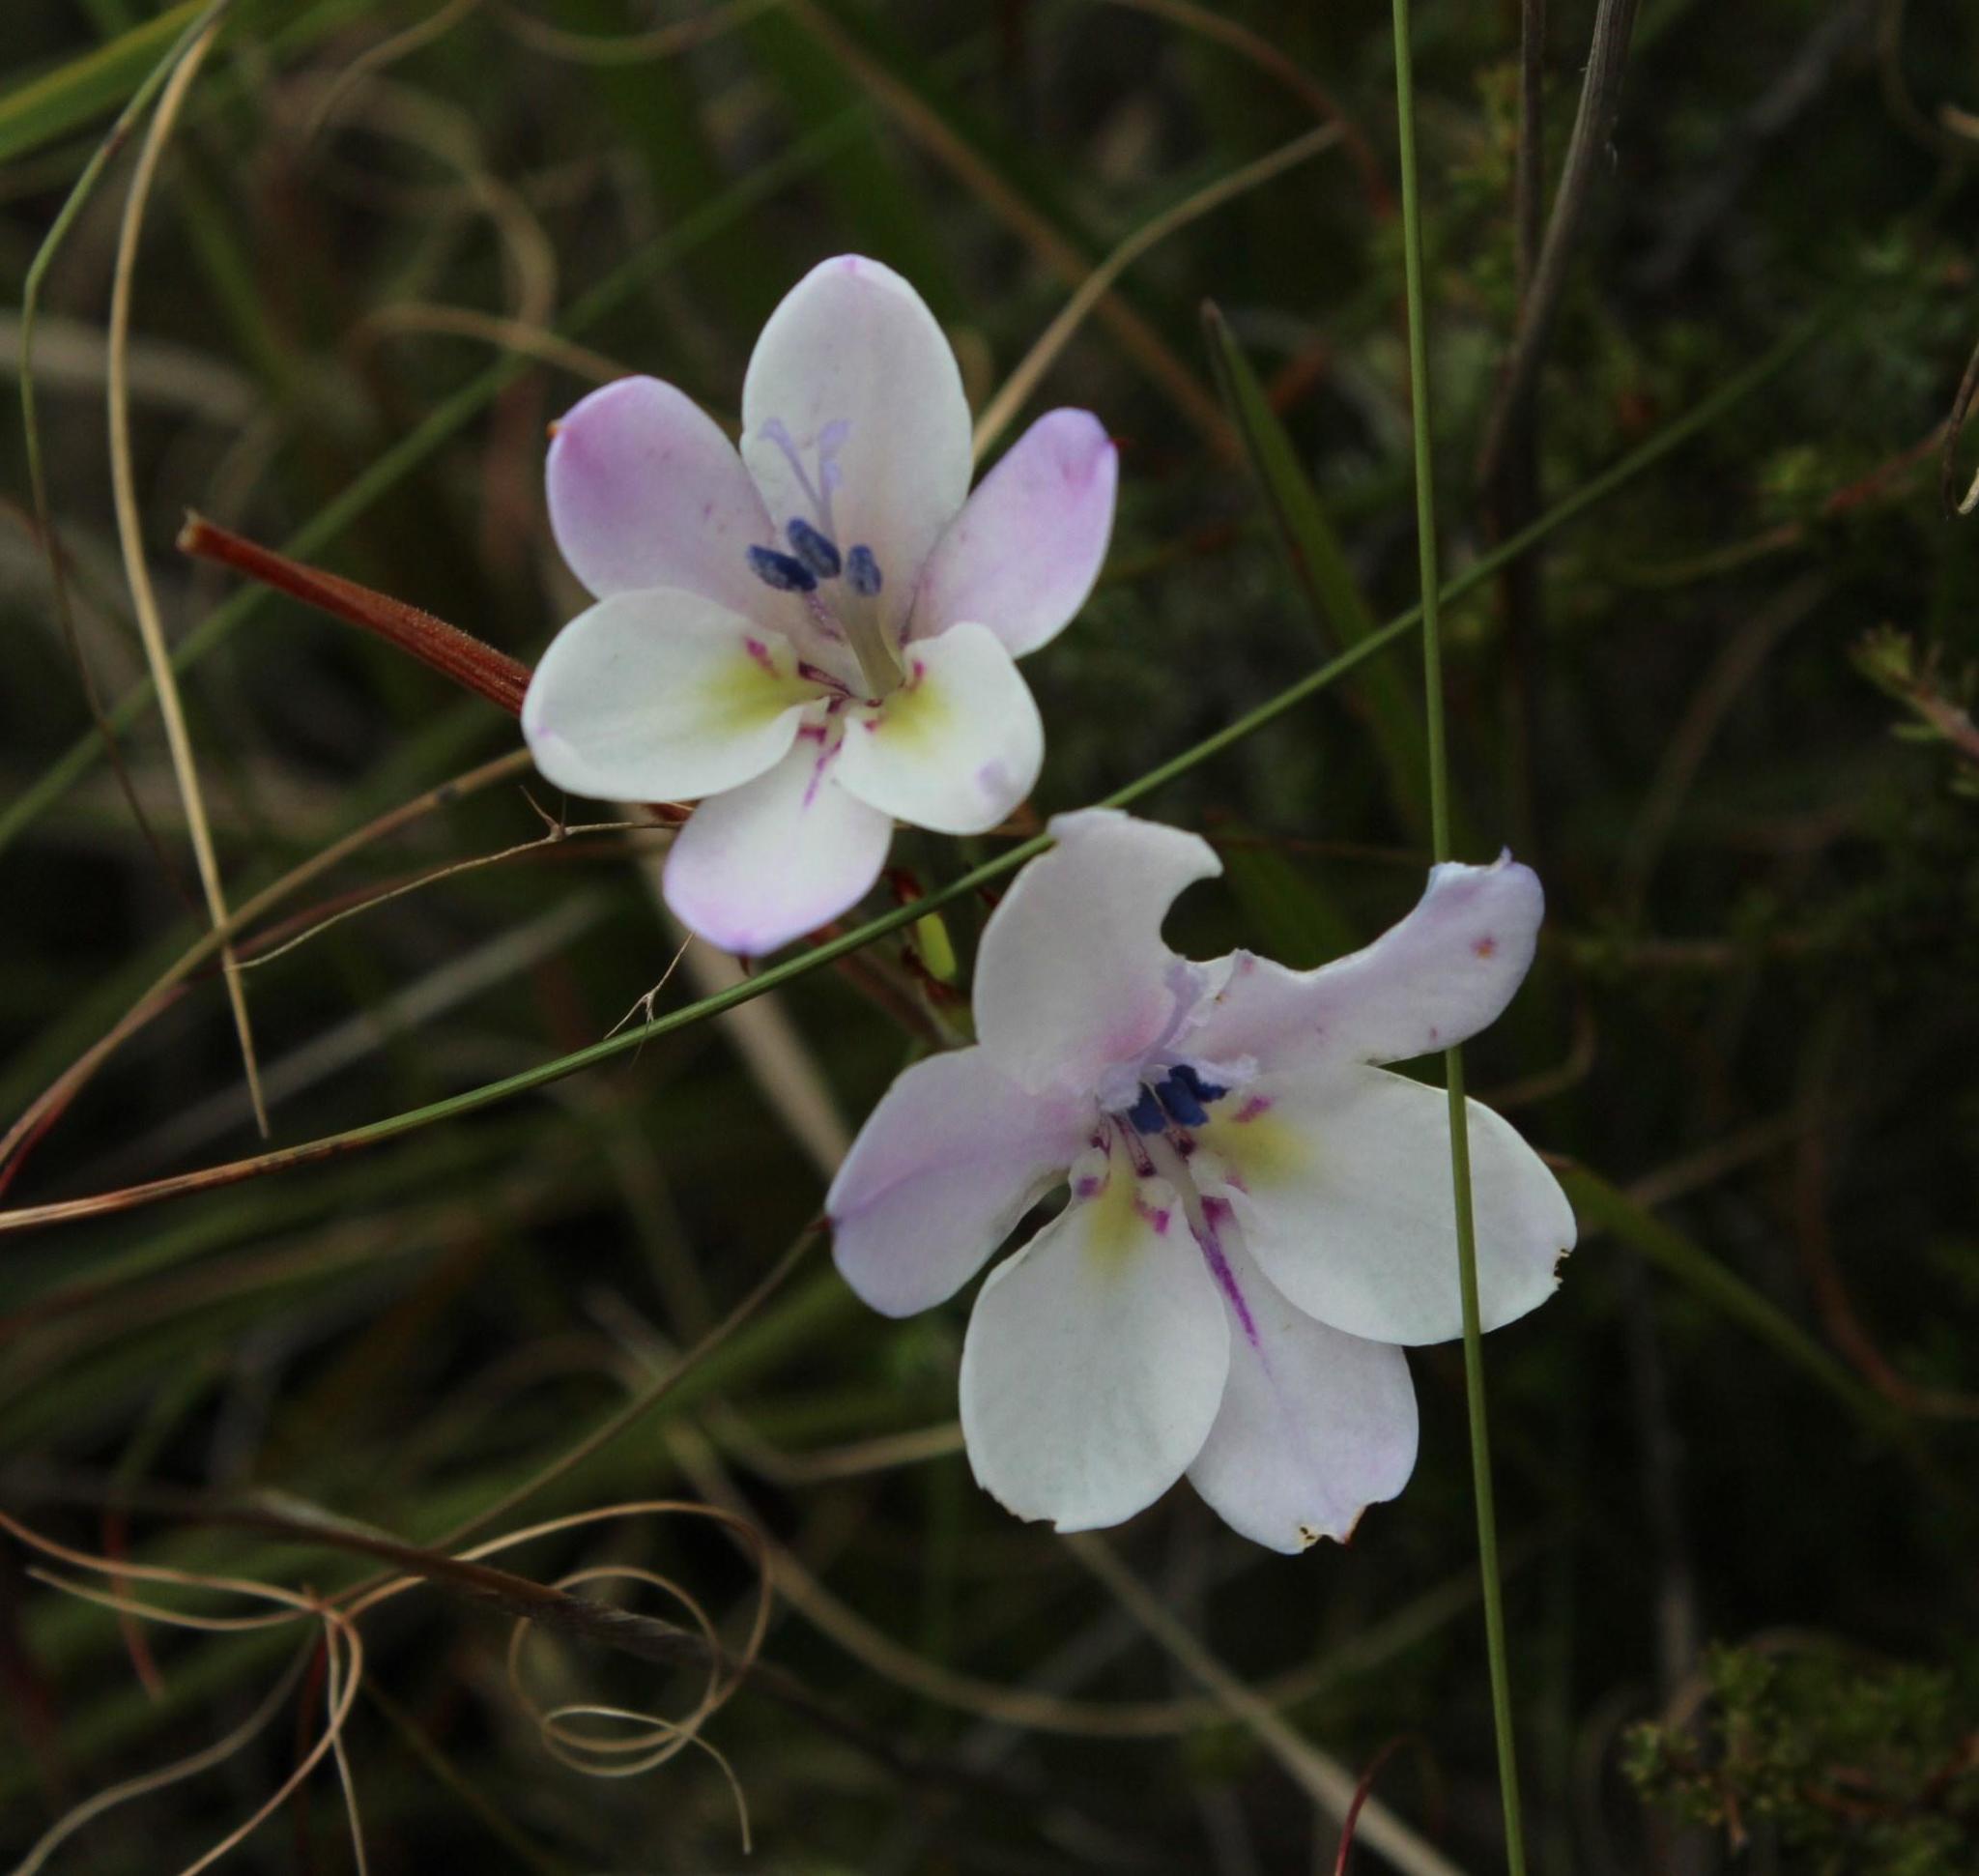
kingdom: Plantae
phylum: Tracheophyta
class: Liliopsida
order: Asparagales
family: Iridaceae
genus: Babiana
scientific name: Babiana patersoniae
